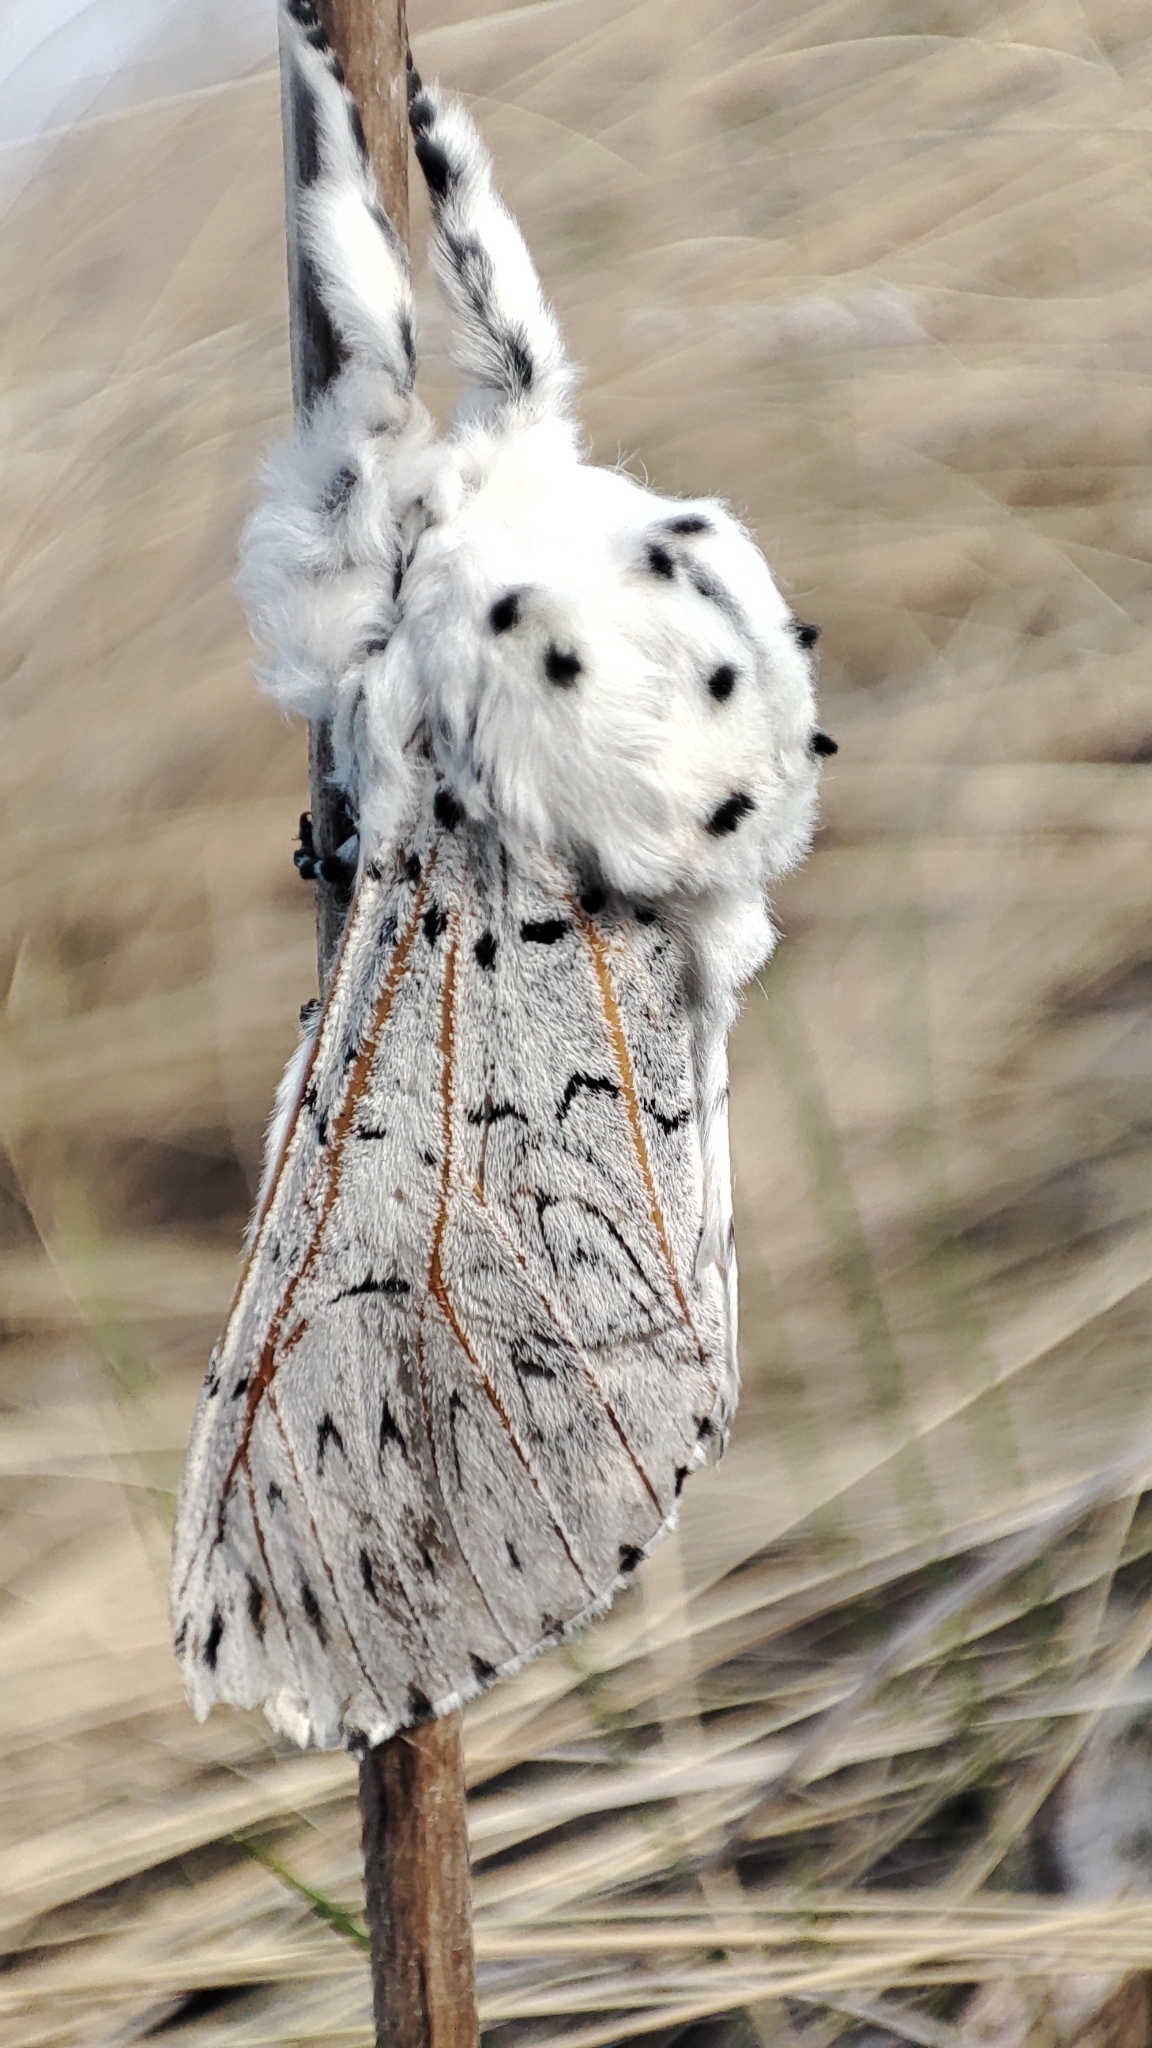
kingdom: Animalia
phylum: Arthropoda
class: Insecta
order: Lepidoptera
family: Notodontidae
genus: Cerura
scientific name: Cerura vinula
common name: Puss moth
